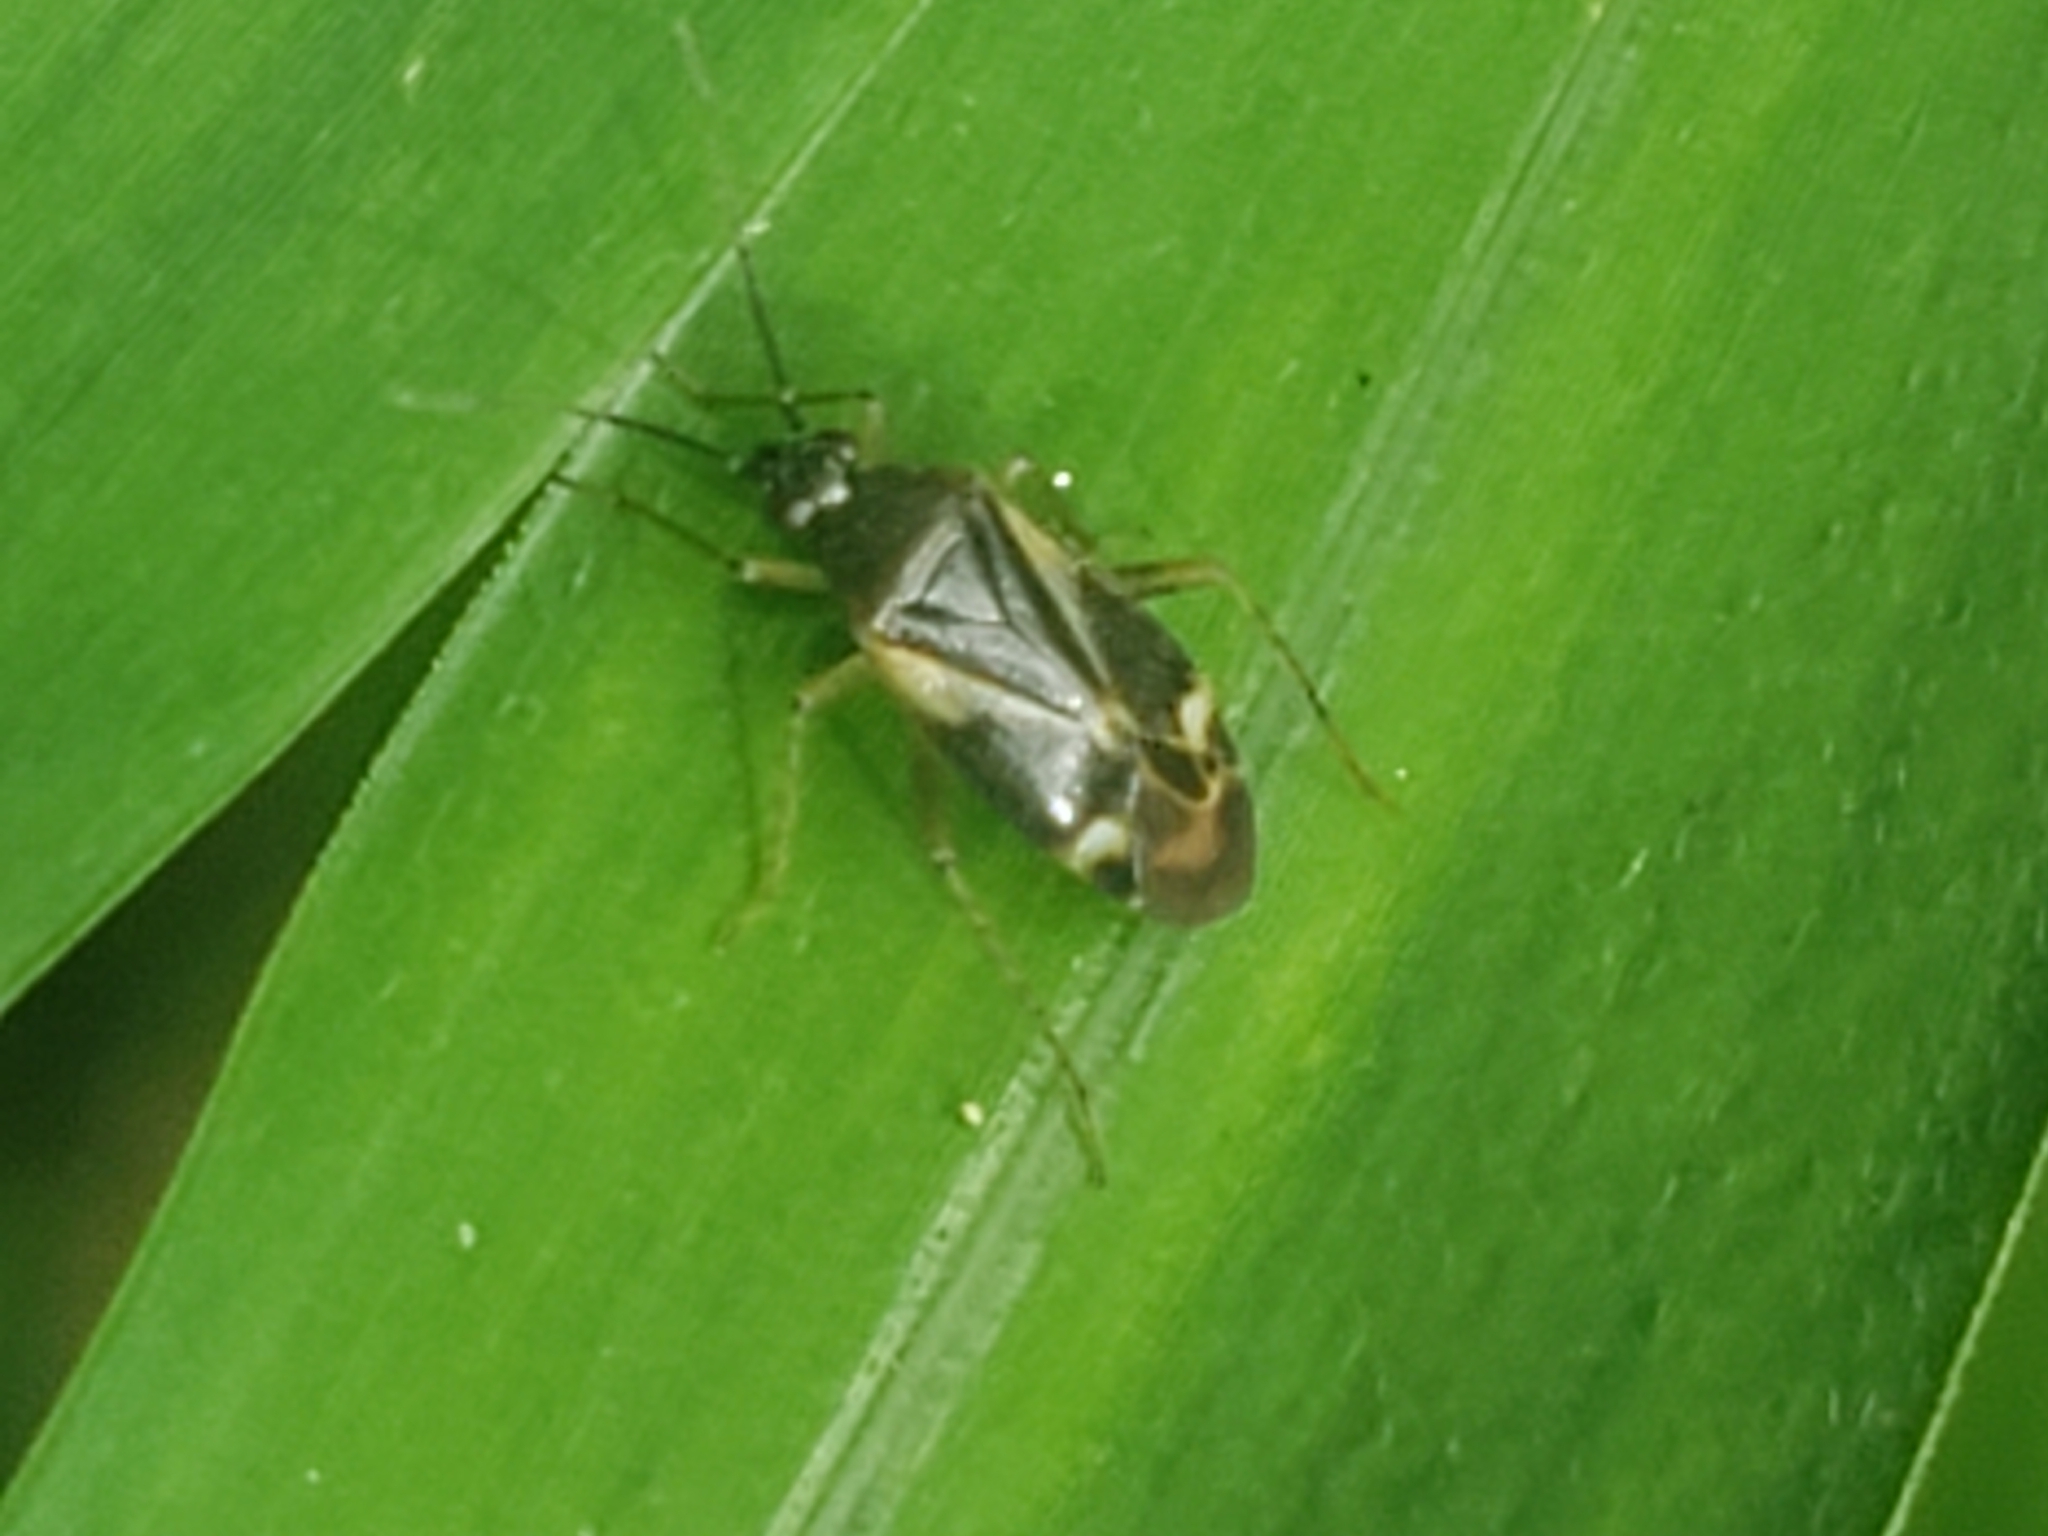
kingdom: Animalia
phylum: Arthropoda
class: Insecta
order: Hemiptera
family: Miridae
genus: Plagiognathus
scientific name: Plagiognathus obscurus
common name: Obscure plant bug
